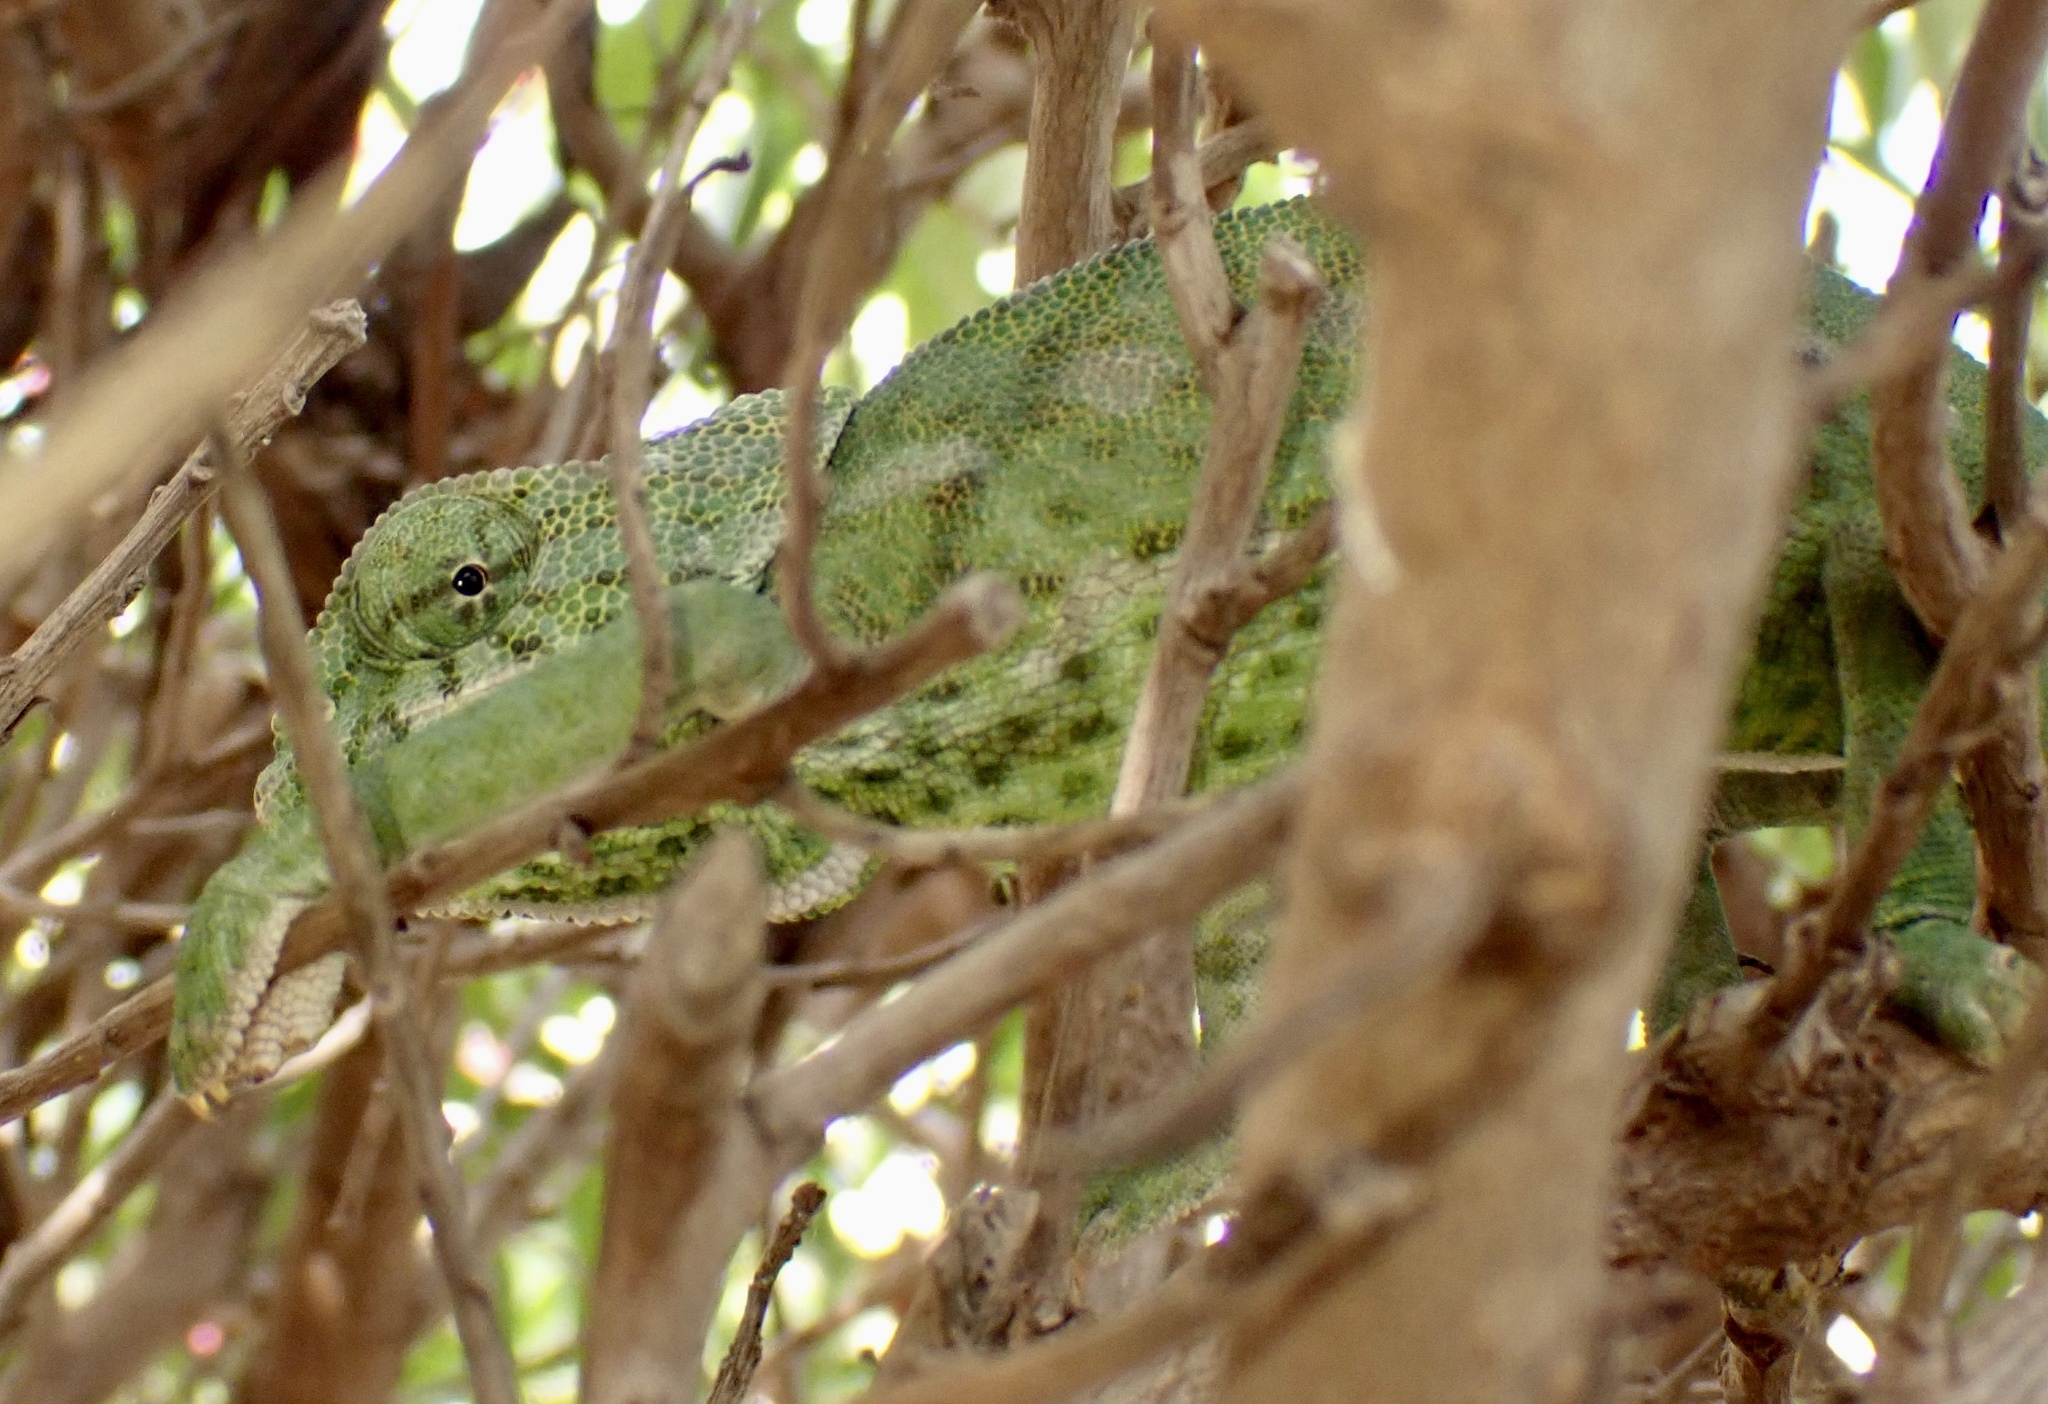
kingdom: Animalia
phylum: Chordata
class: Squamata
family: Chamaeleonidae
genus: Chamaeleo
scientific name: Chamaeleo chamaeleon
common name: Mediterranean chameleon
